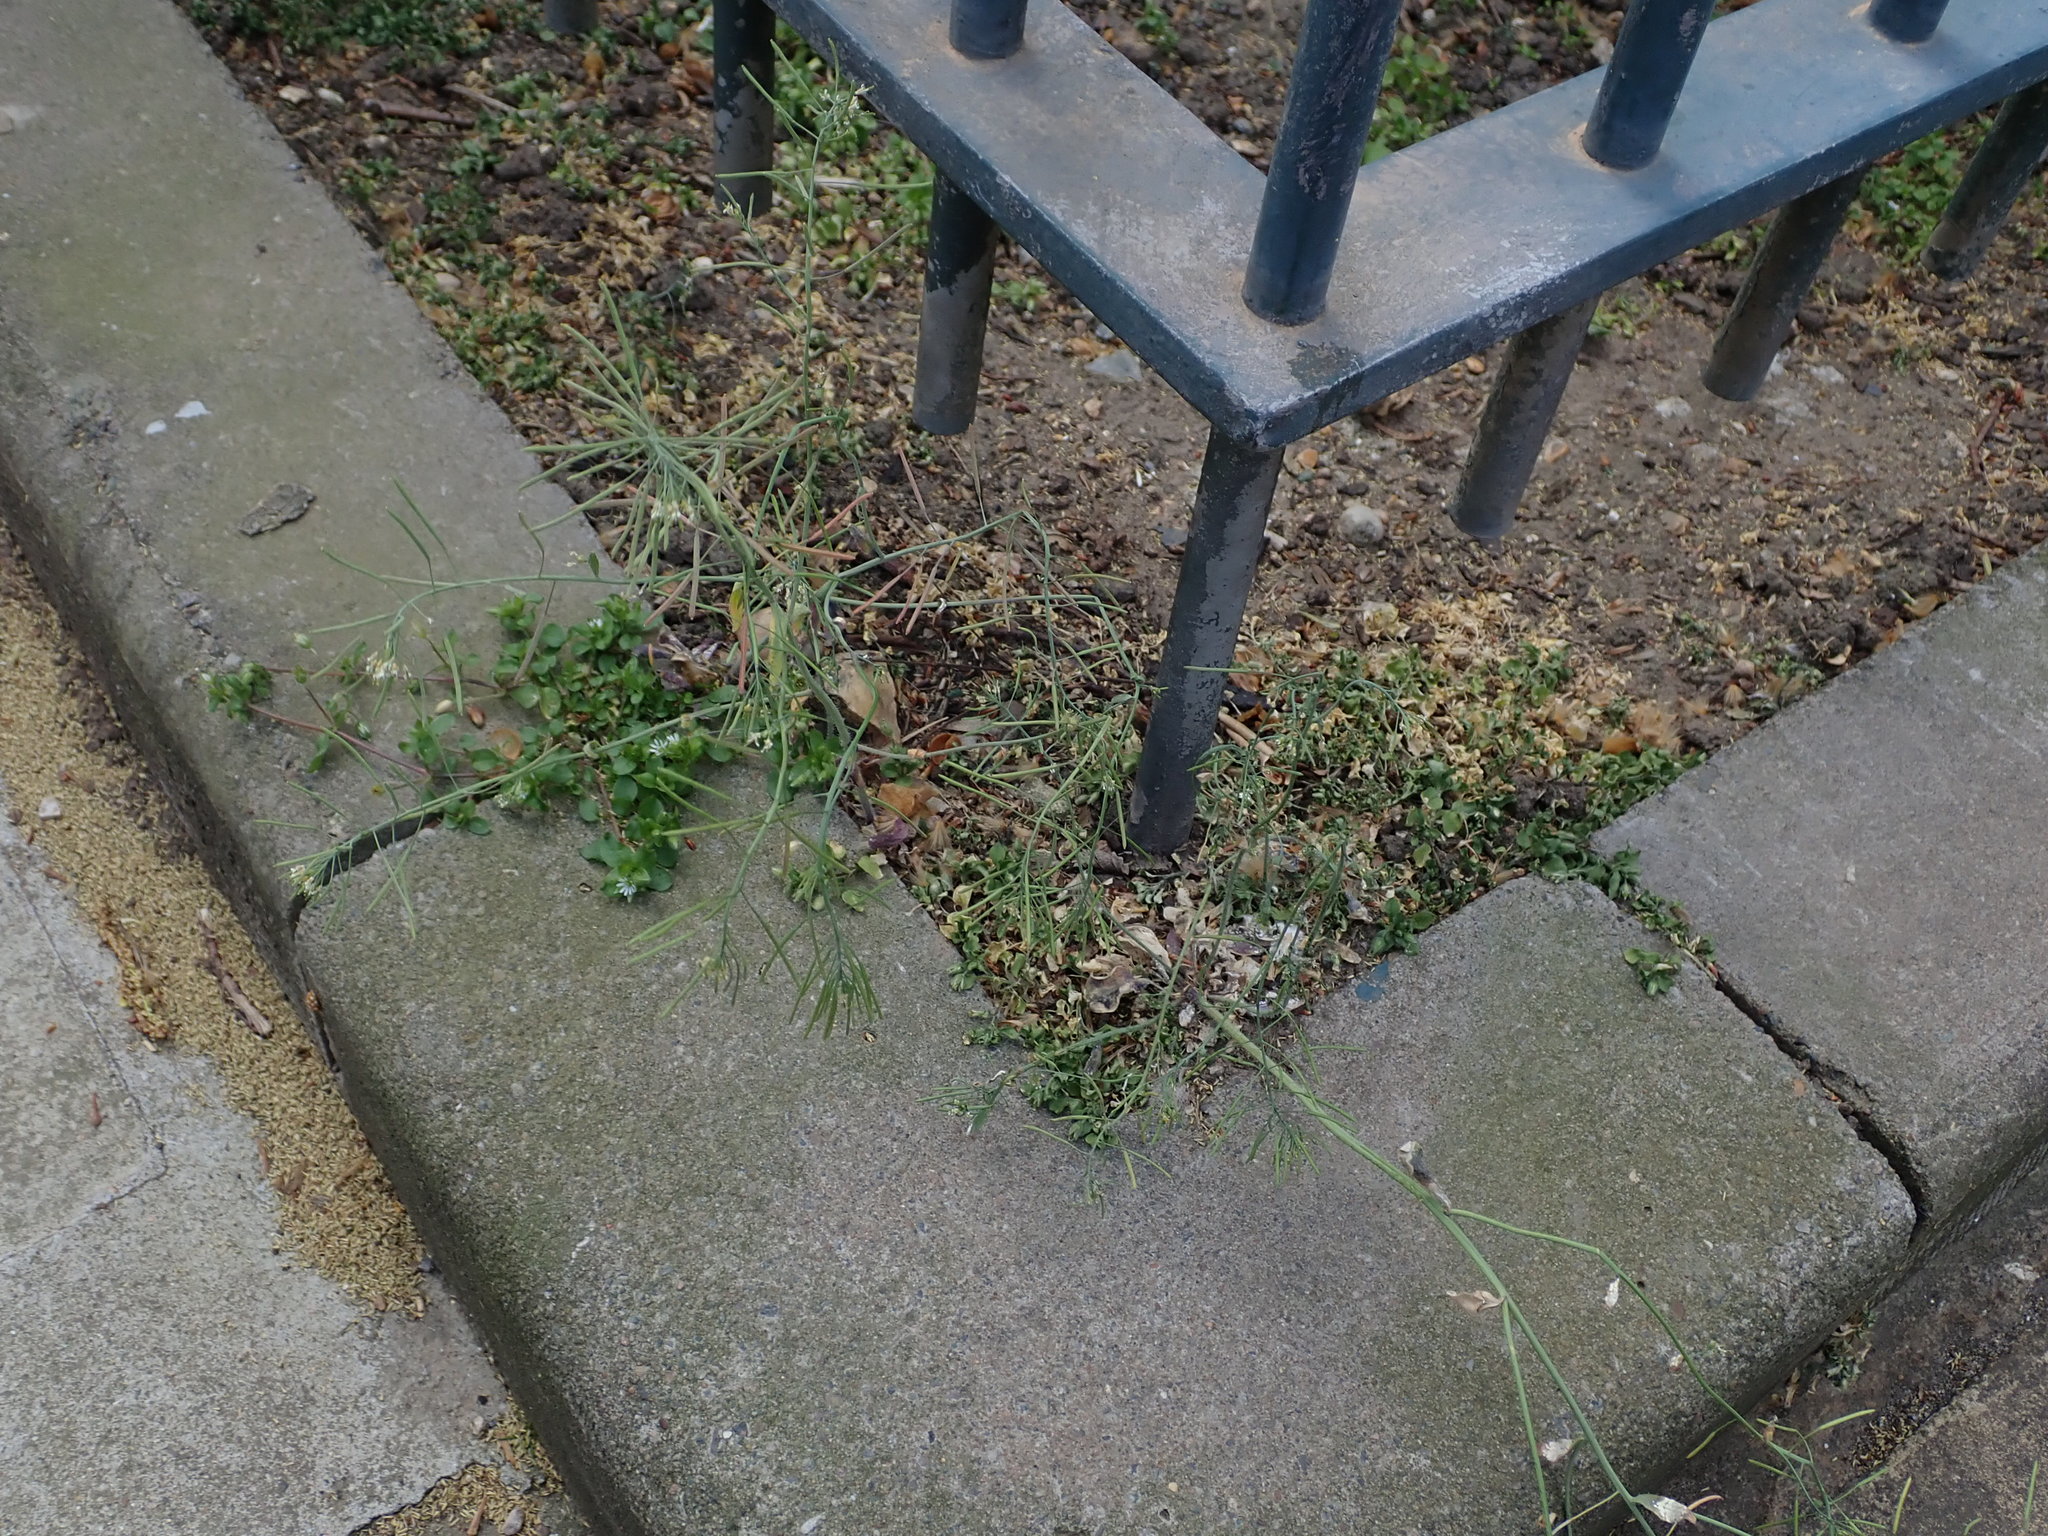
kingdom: Plantae
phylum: Tracheophyta
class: Magnoliopsida
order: Brassicales
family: Brassicaceae
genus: Arabidopsis
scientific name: Arabidopsis thaliana
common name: Thale cress
